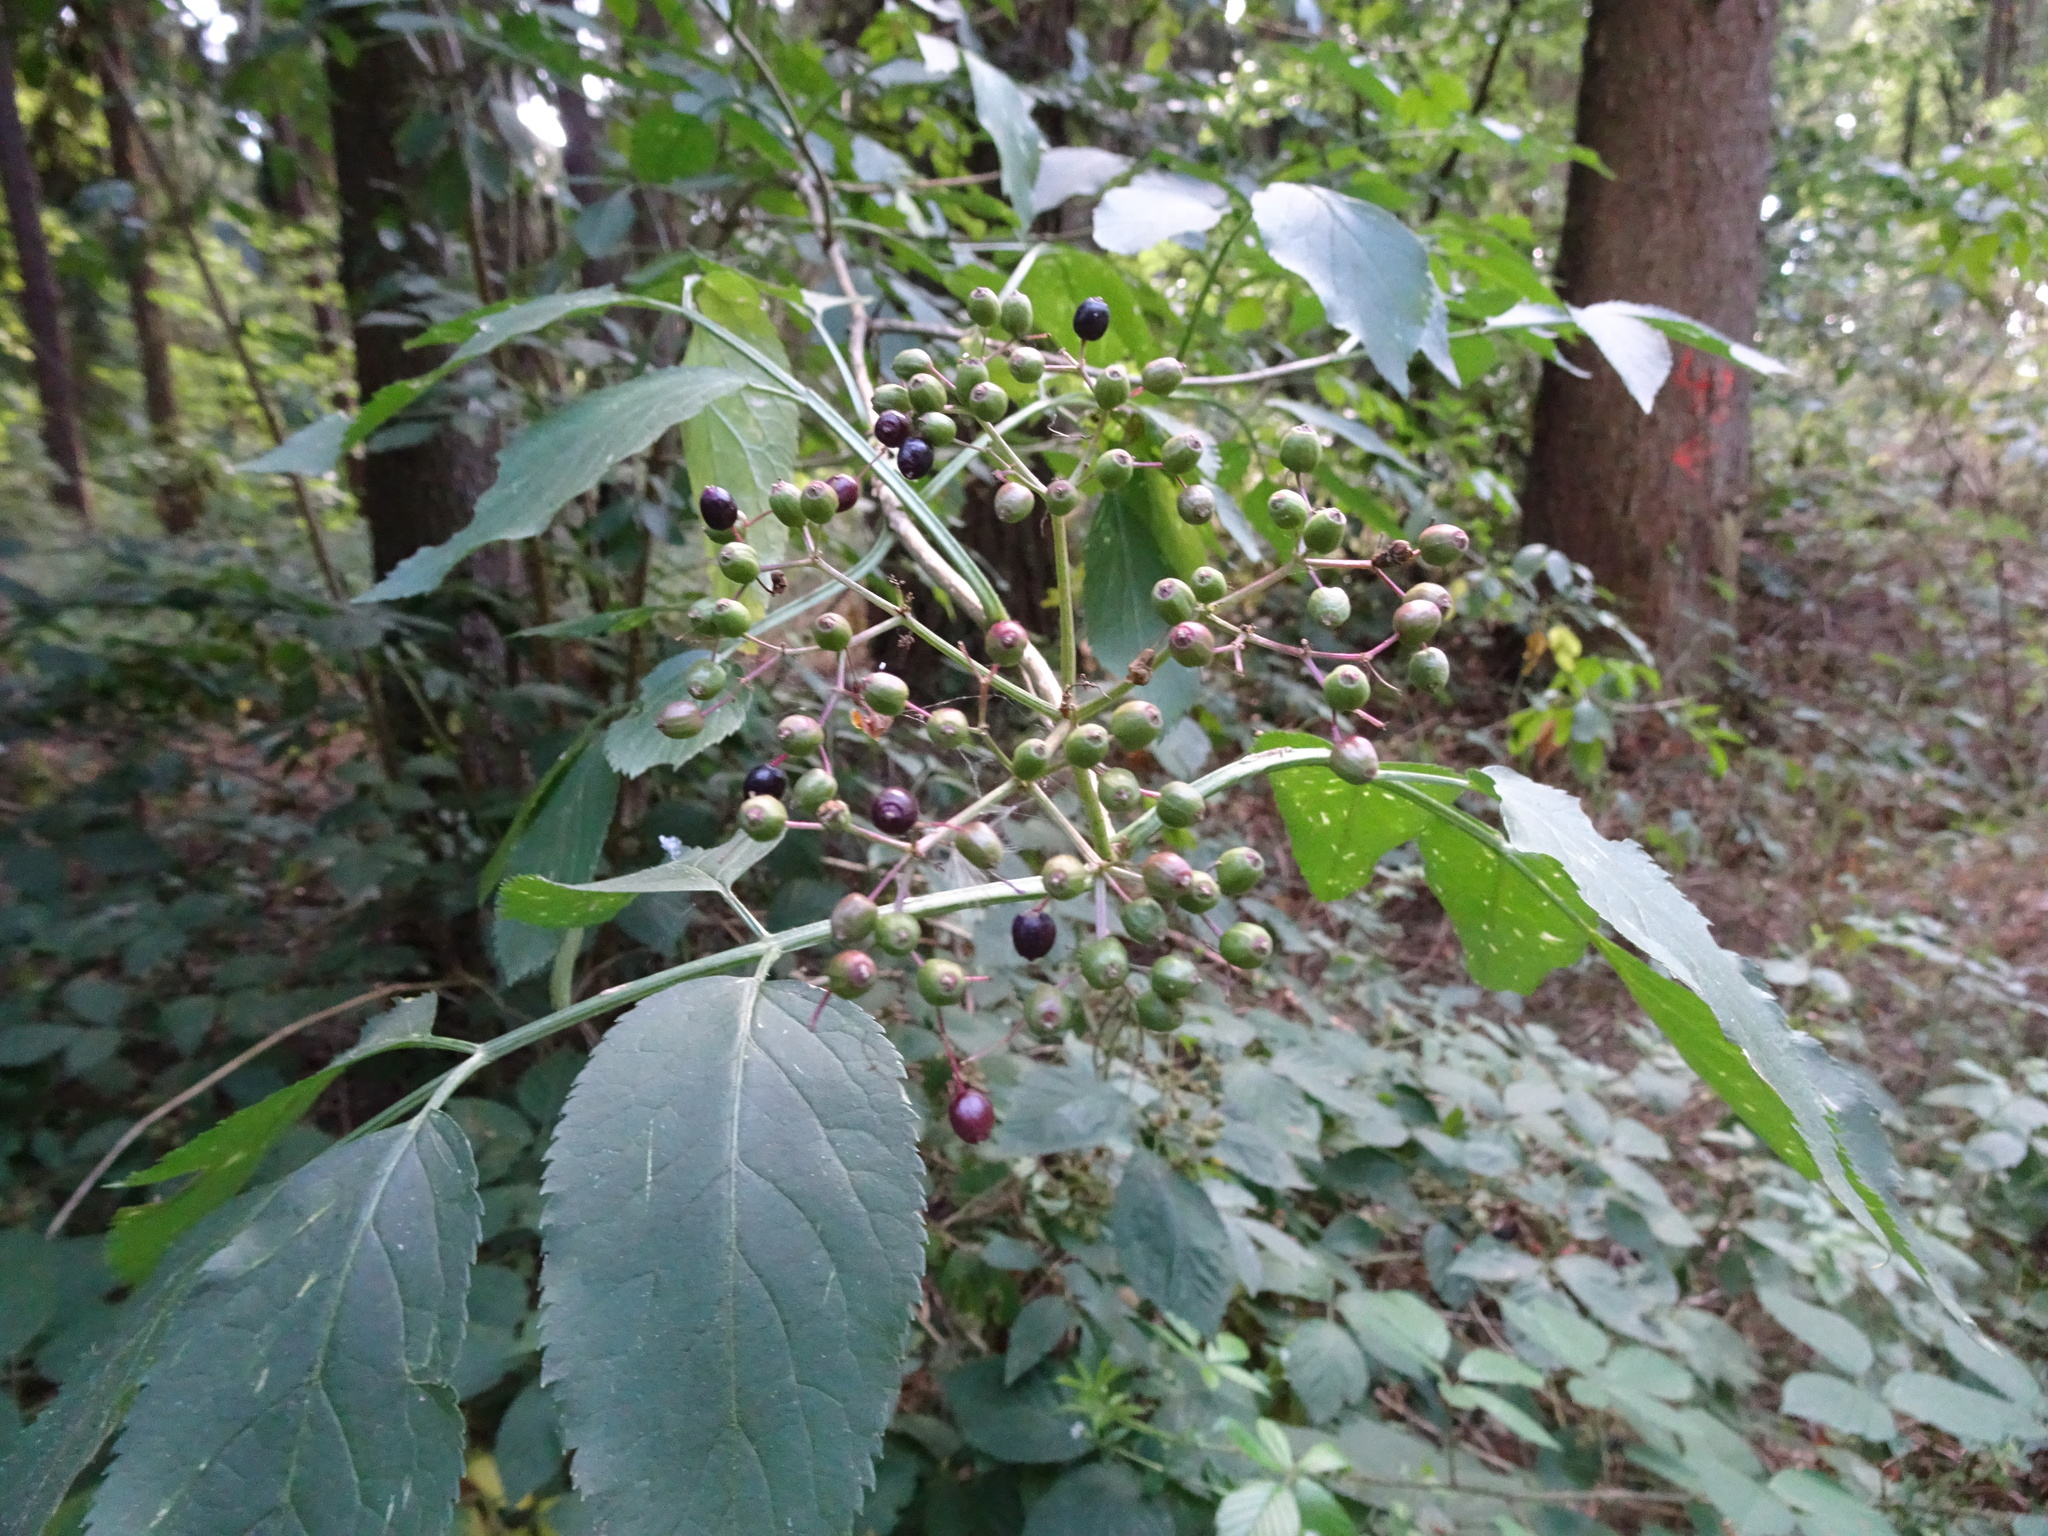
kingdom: Plantae
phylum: Tracheophyta
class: Magnoliopsida
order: Dipsacales
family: Viburnaceae
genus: Sambucus
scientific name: Sambucus nigra
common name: Elder
